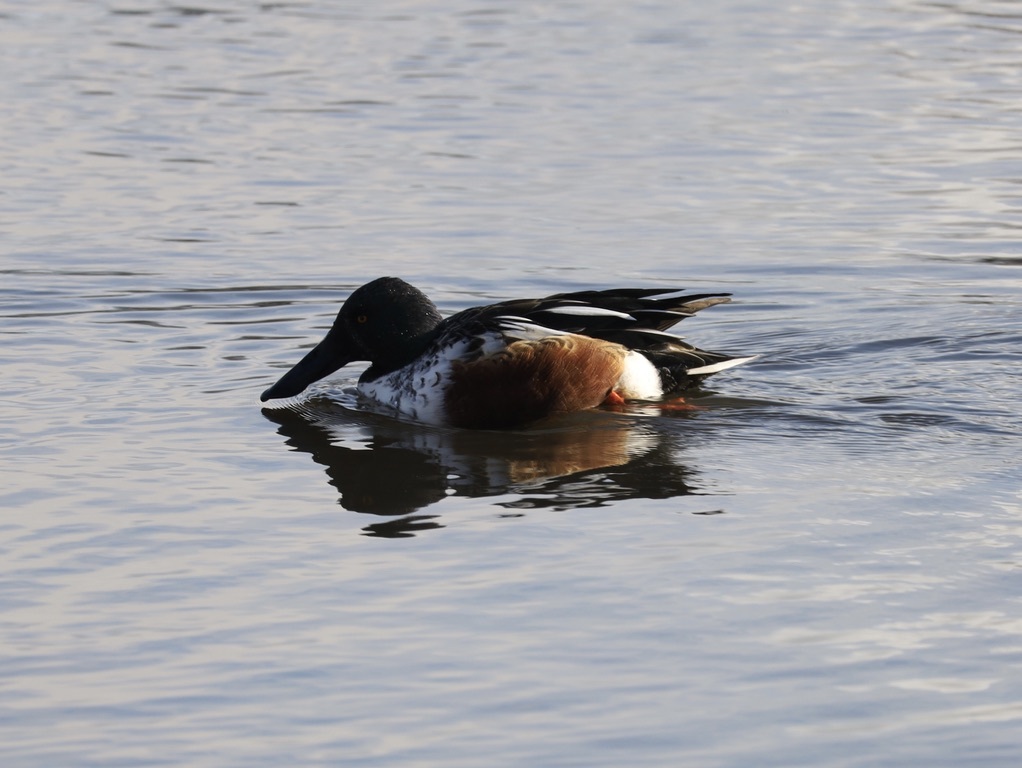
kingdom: Animalia
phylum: Chordata
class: Aves
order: Anseriformes
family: Anatidae
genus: Spatula
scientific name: Spatula clypeata
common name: Northern shoveler
